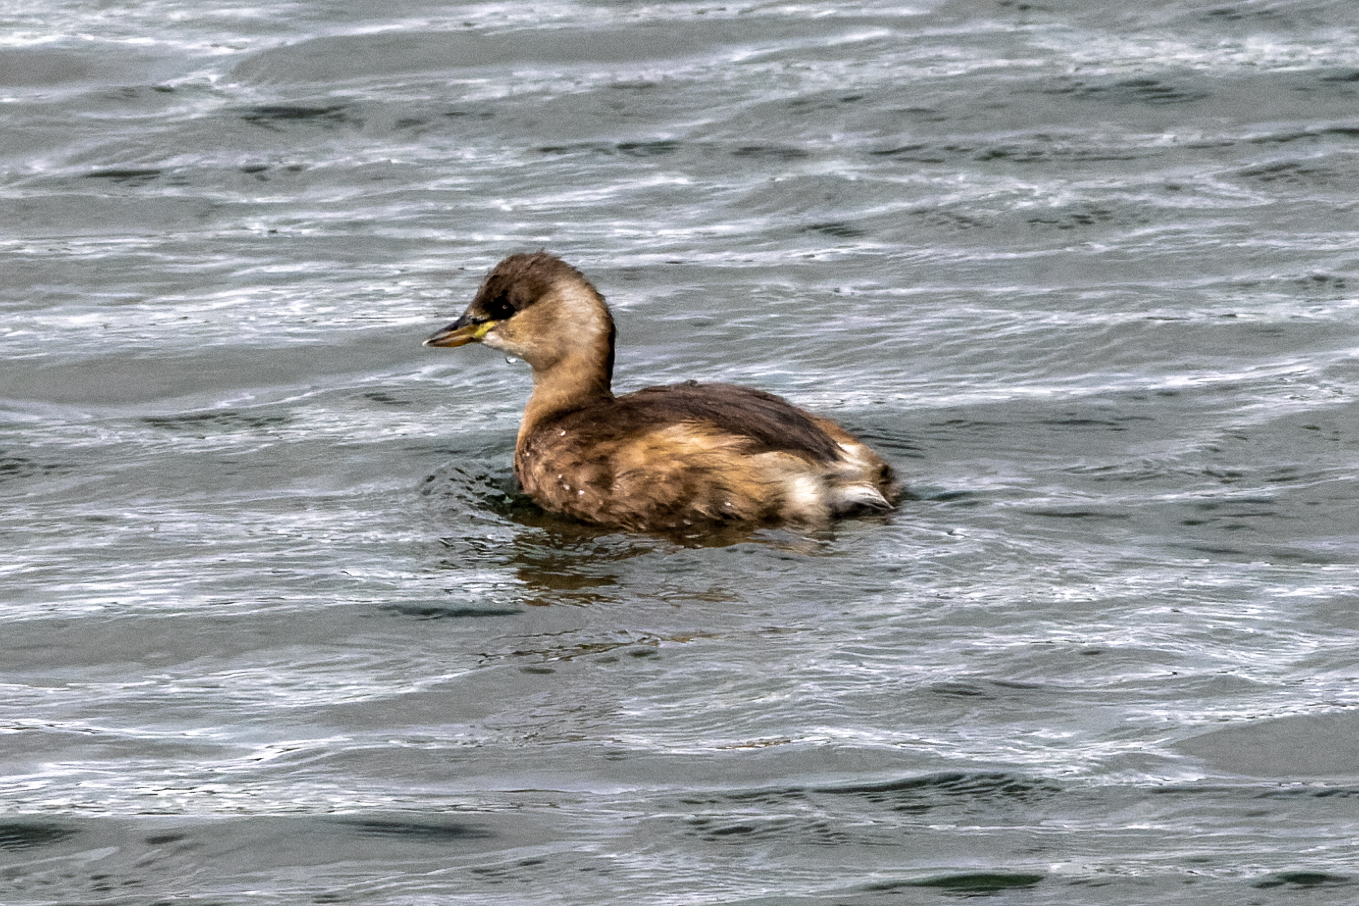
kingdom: Animalia
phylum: Chordata
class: Aves
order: Podicipediformes
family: Podicipedidae
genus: Tachybaptus
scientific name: Tachybaptus ruficollis
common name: Little grebe
